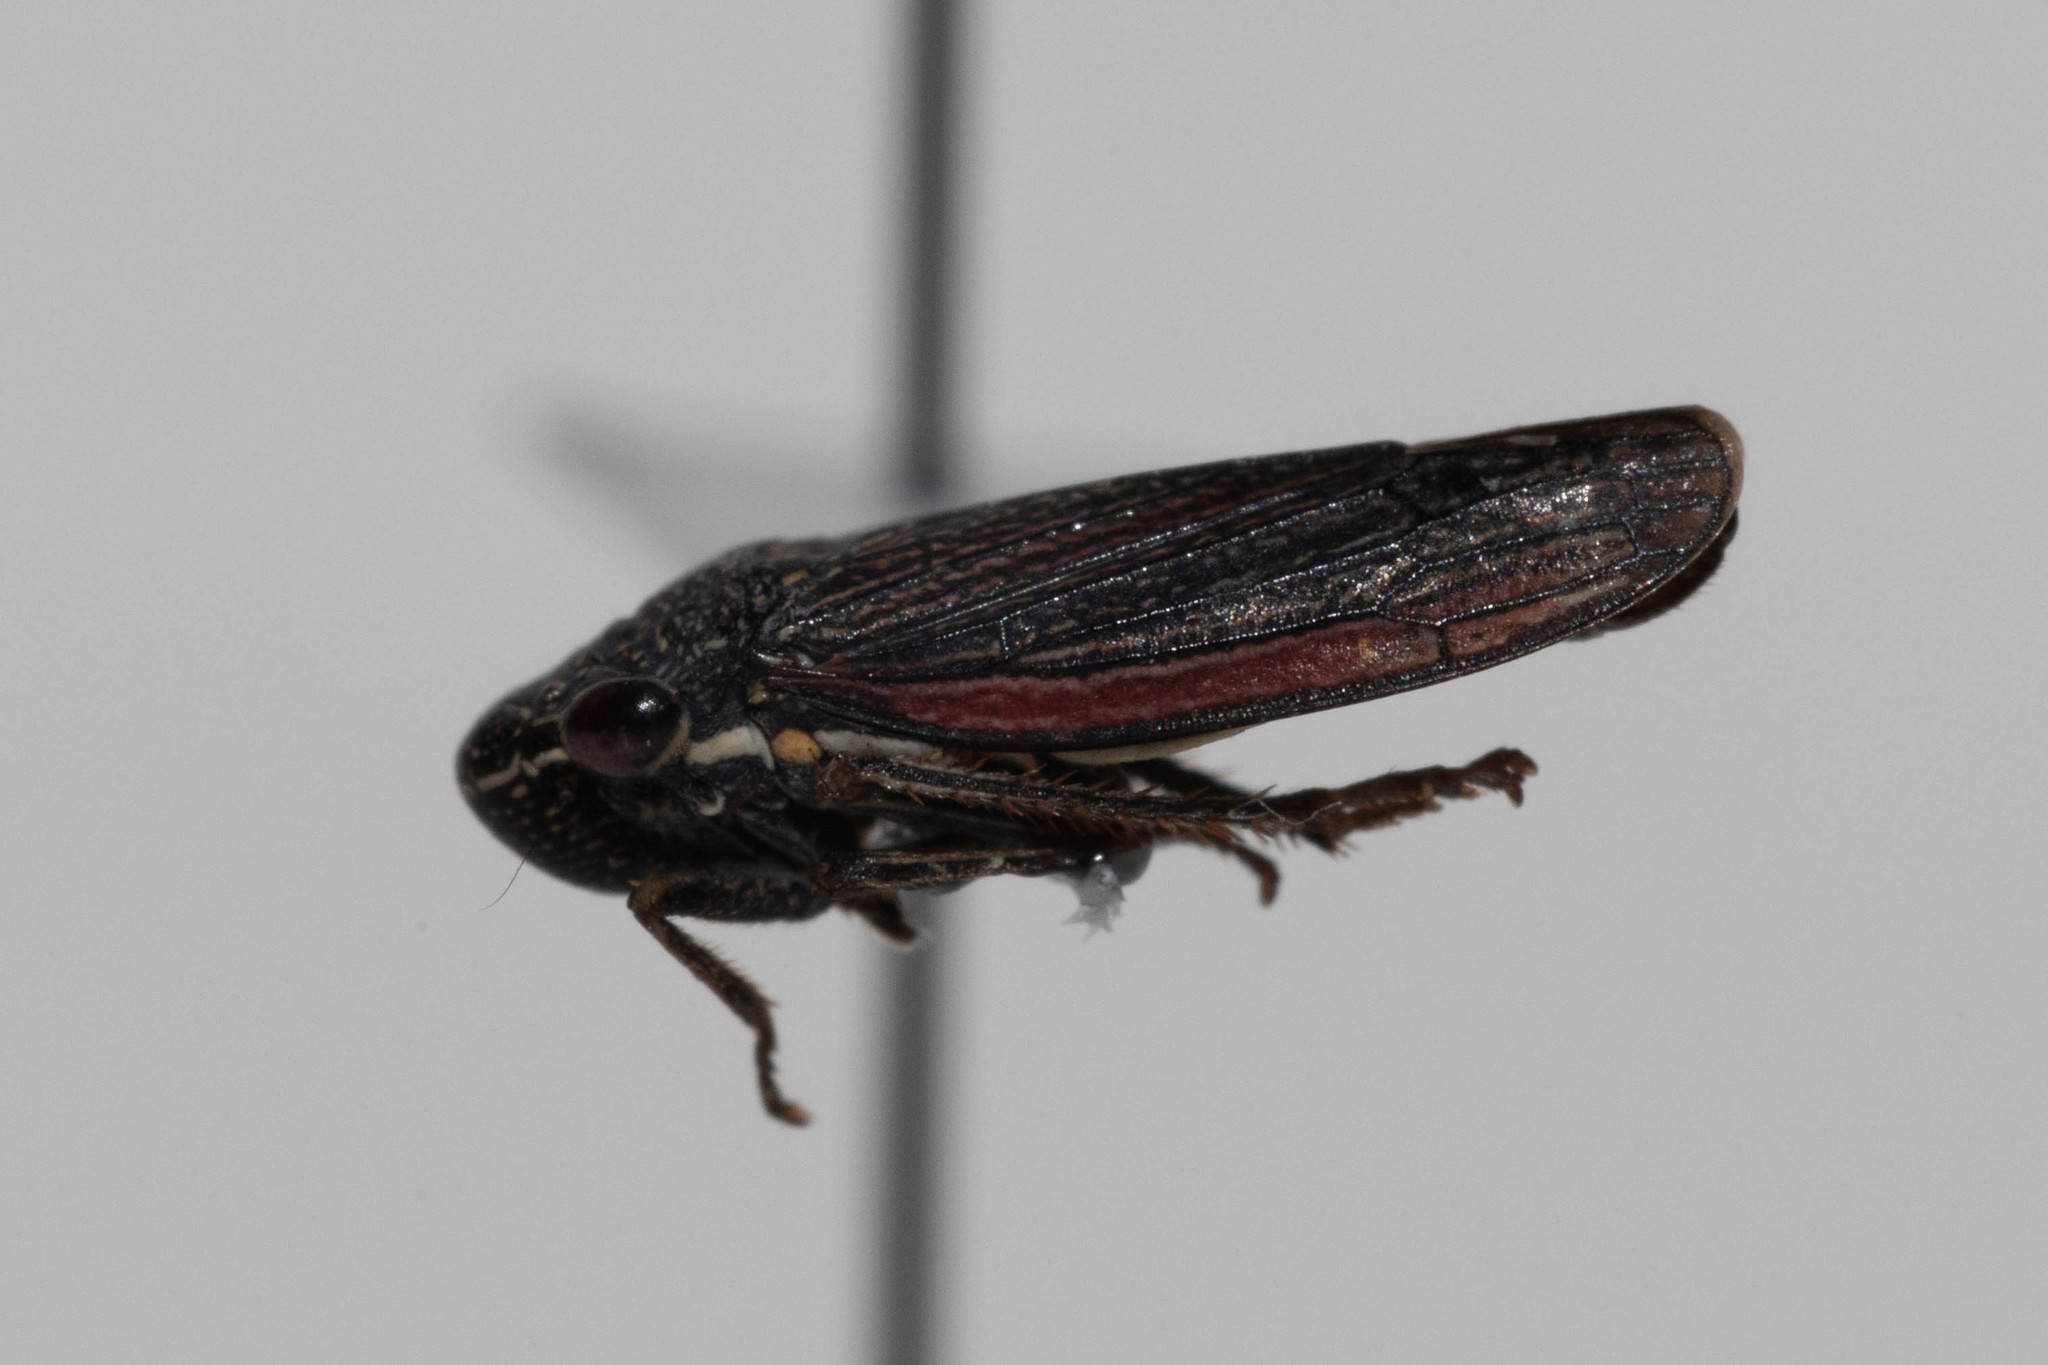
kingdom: Animalia
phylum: Arthropoda
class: Insecta
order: Hemiptera
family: Cicadellidae
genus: Cuerna
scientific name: Cuerna striata
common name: Striped leafhopper
